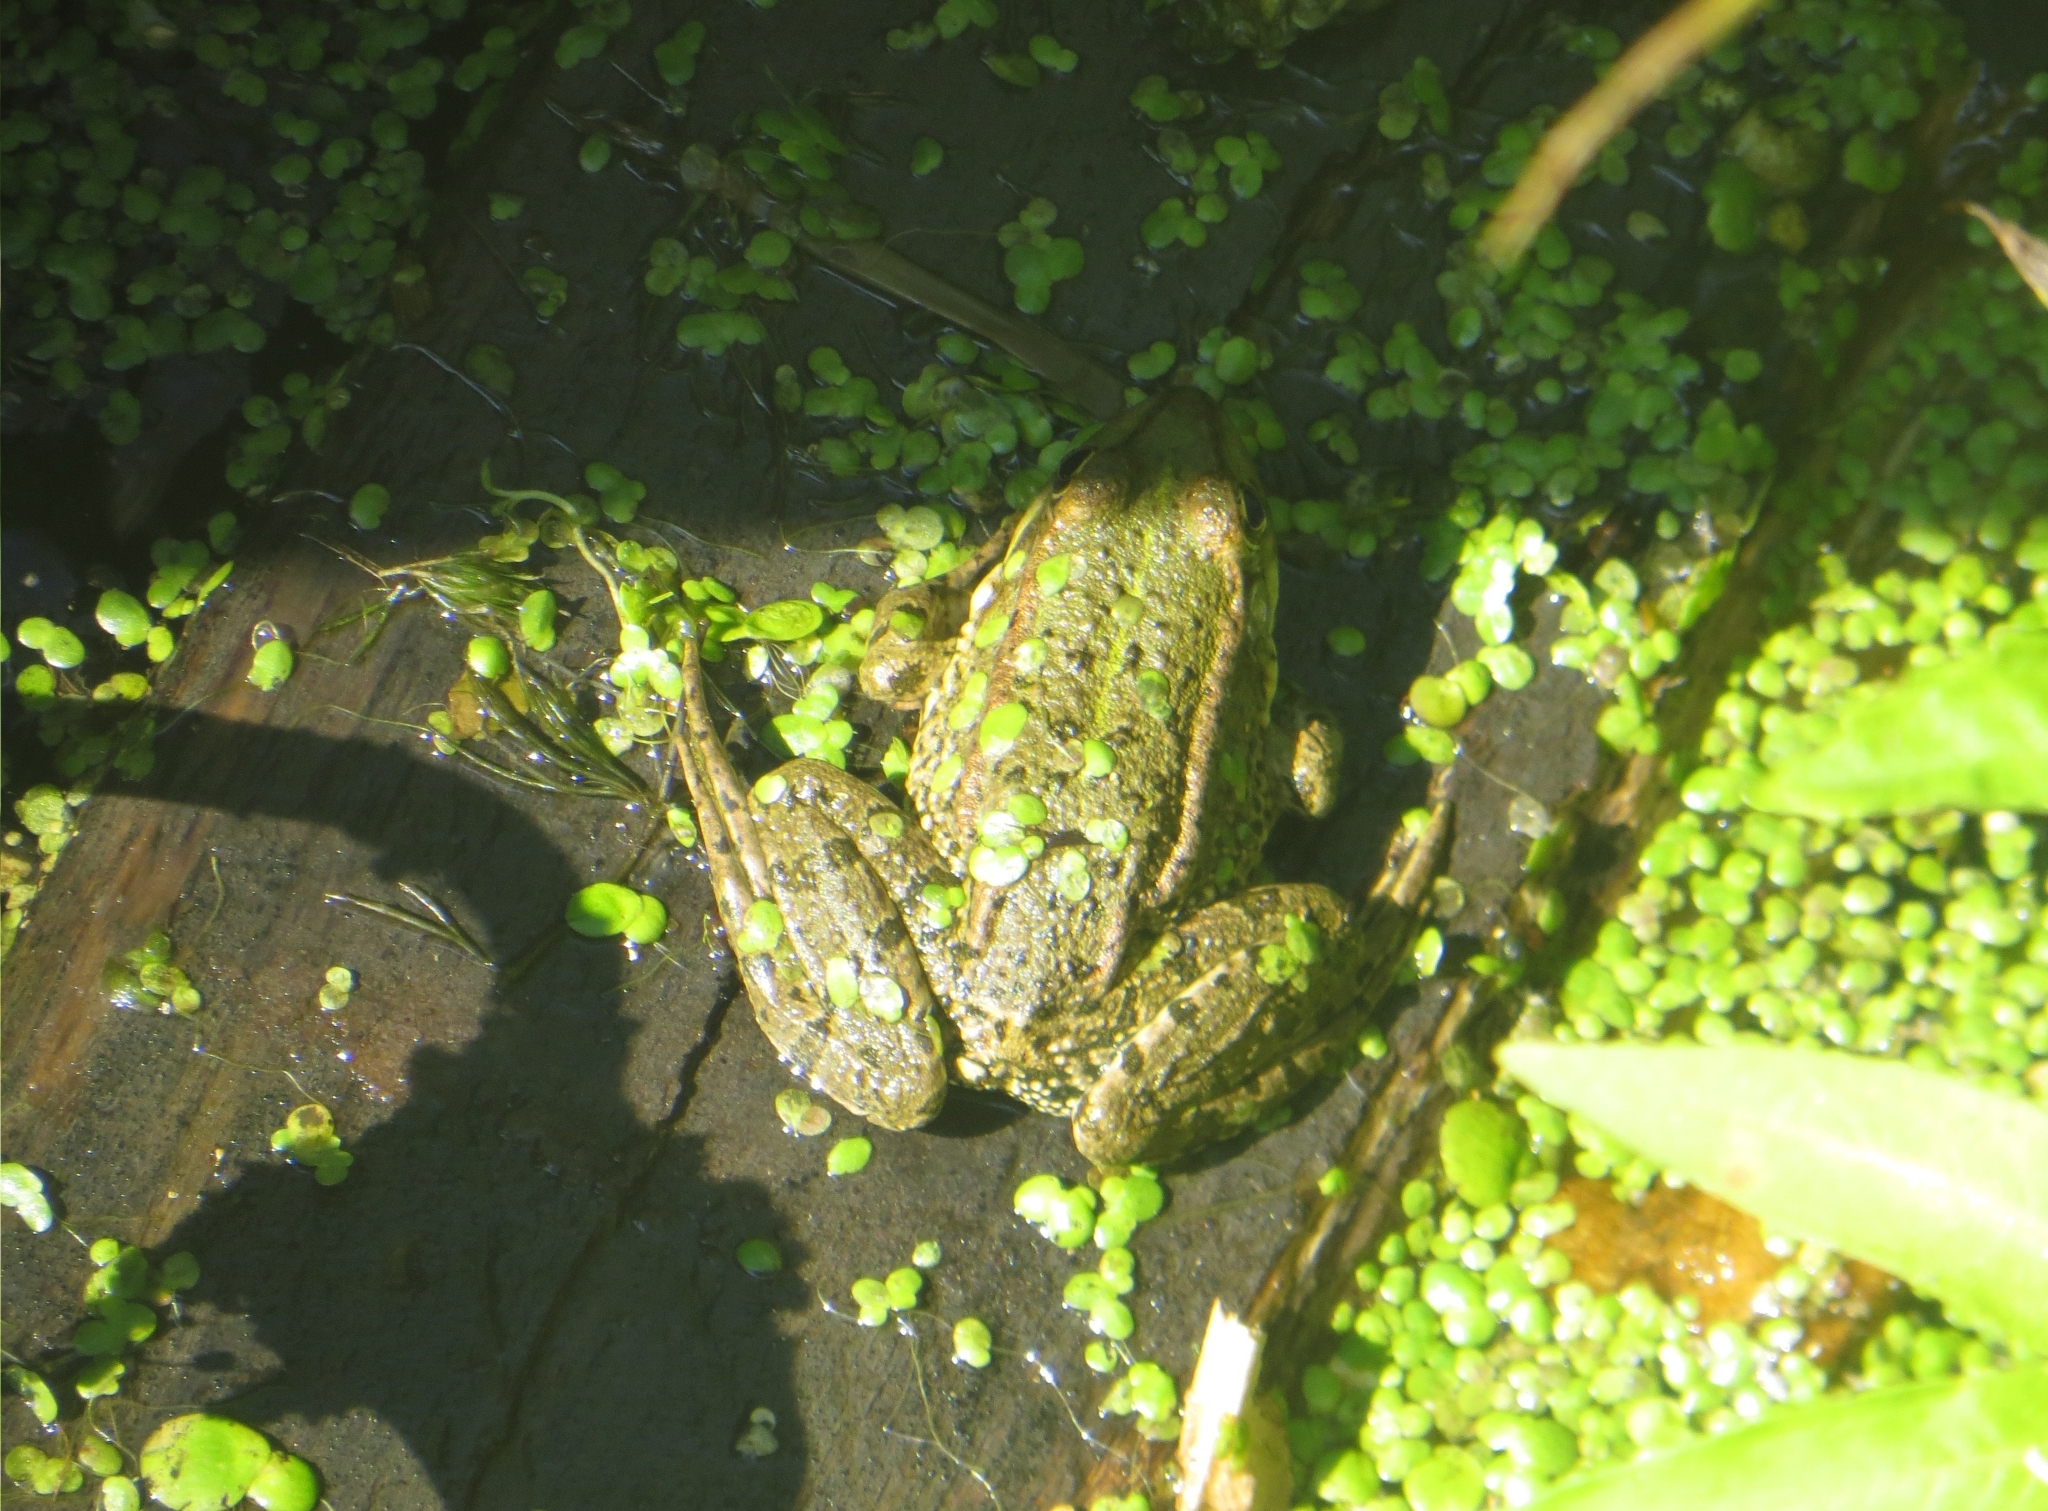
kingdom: Animalia
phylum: Chordata
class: Amphibia
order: Anura
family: Ranidae
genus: Pelophylax
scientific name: Pelophylax ridibundus
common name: Marsh frog
